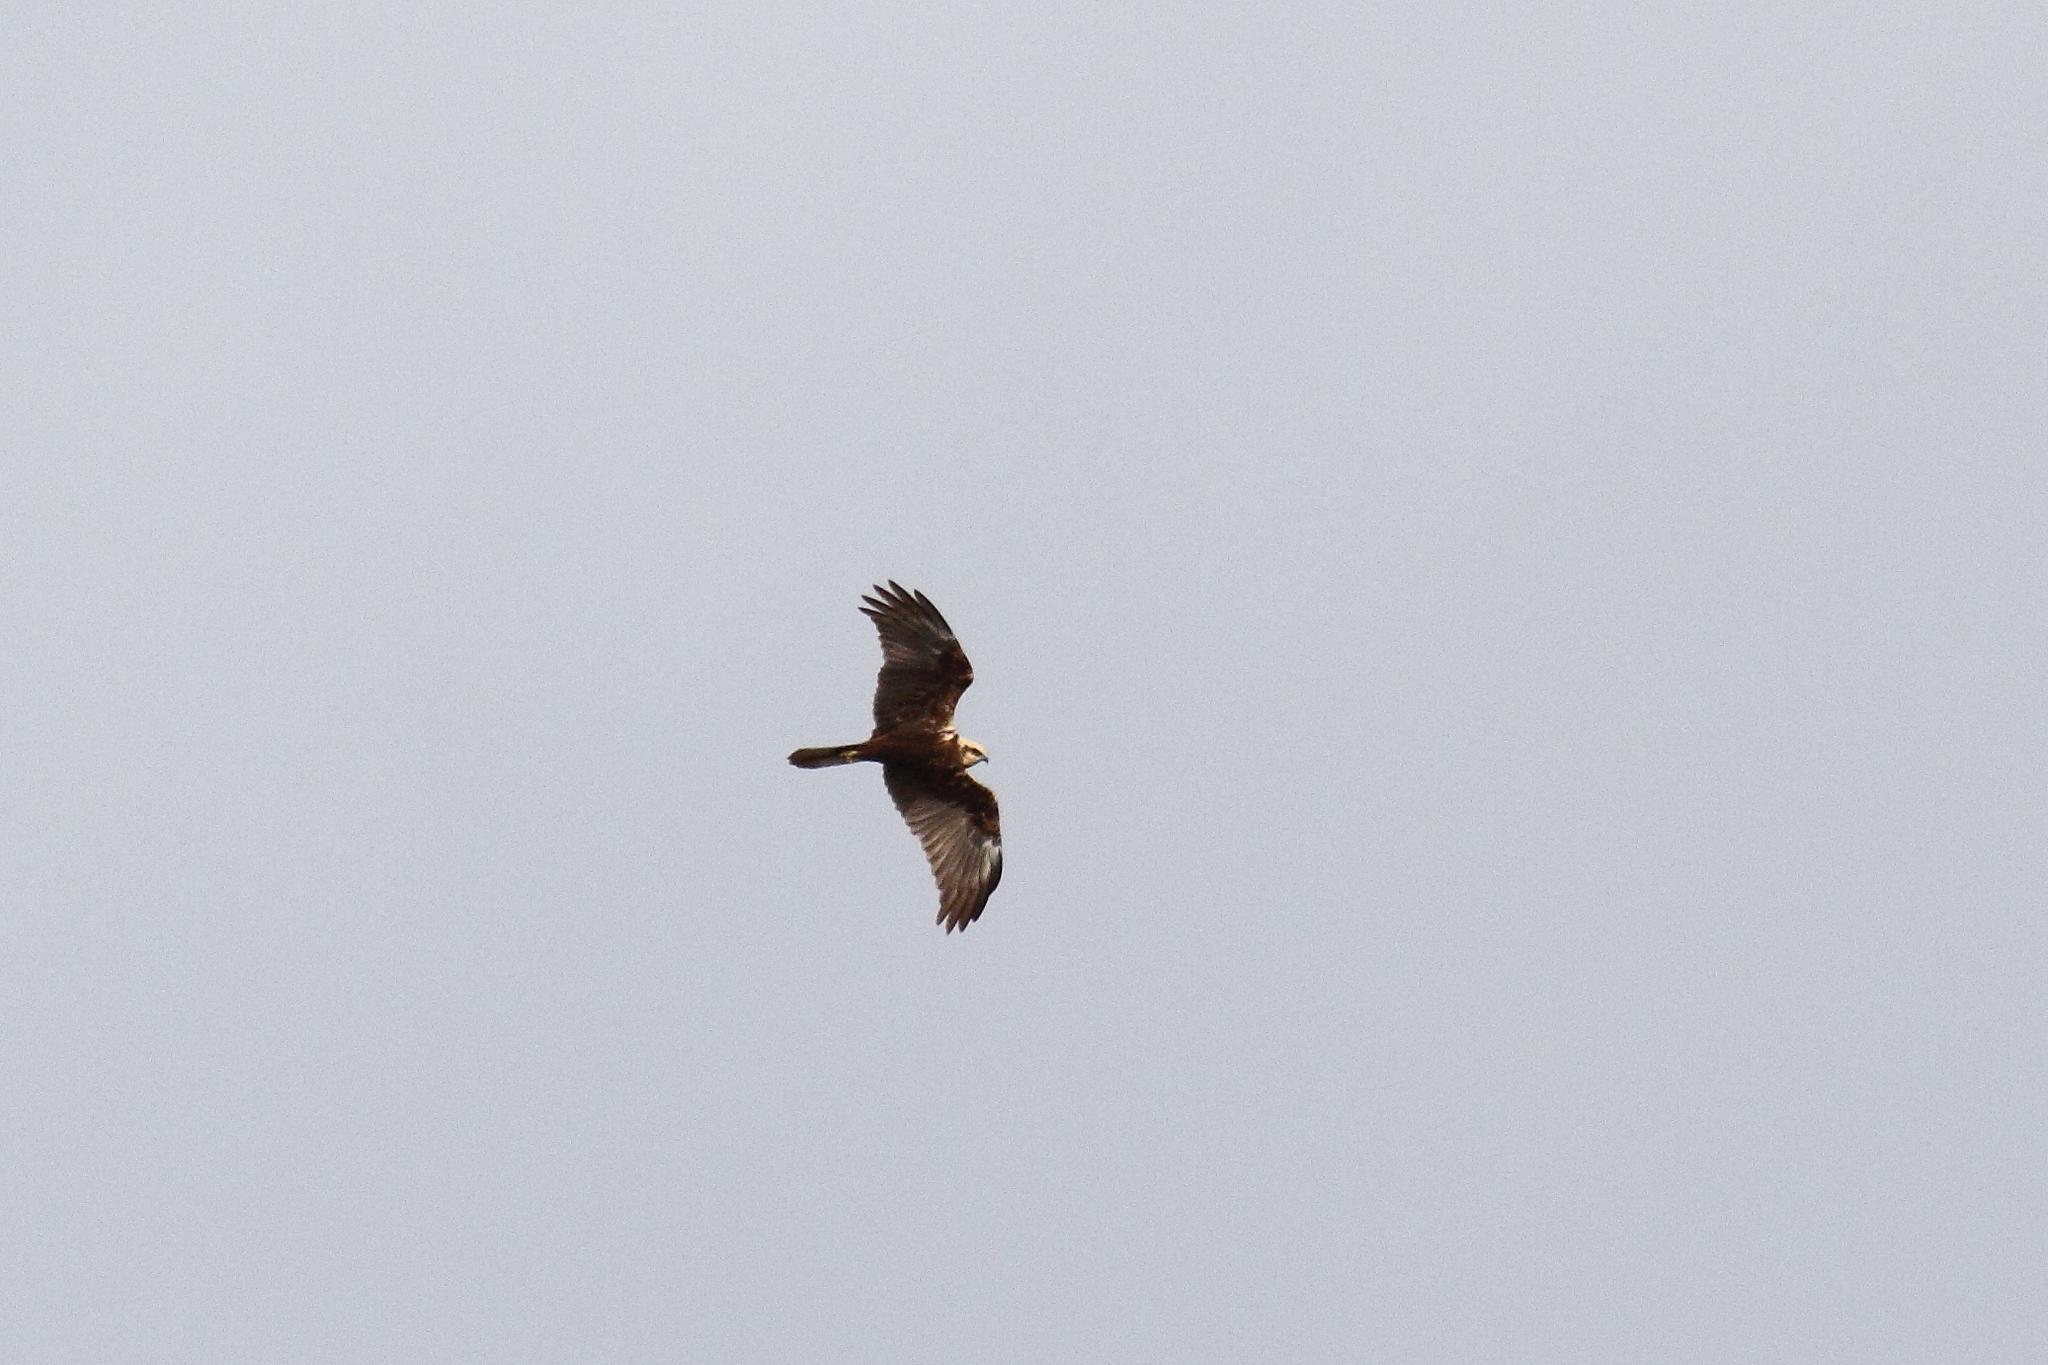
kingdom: Animalia
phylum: Chordata
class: Aves
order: Accipitriformes
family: Accipitridae
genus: Circus
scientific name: Circus aeruginosus
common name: Western marsh harrier
